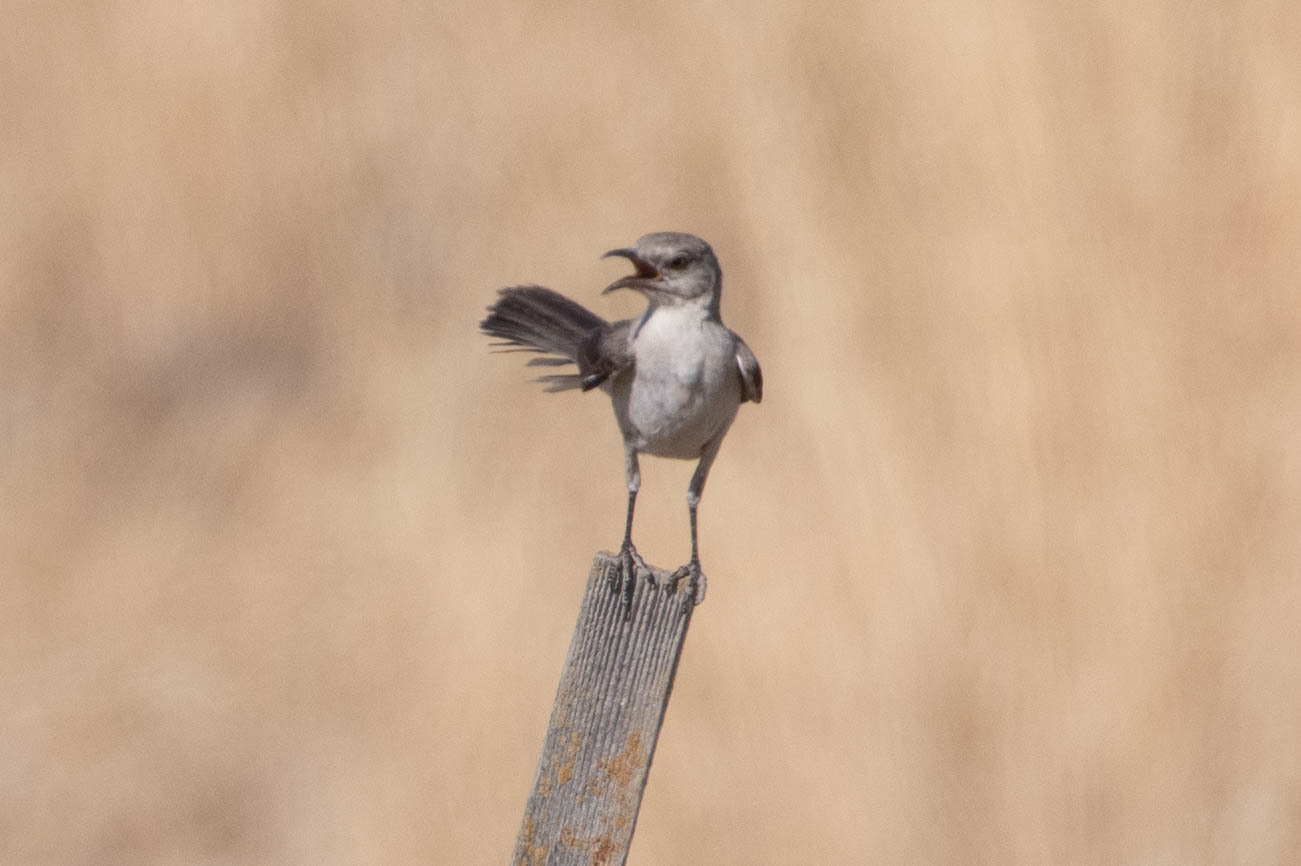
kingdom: Animalia
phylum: Chordata
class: Aves
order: Passeriformes
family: Mimidae
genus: Mimus
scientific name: Mimus polyglottos
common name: Northern mockingbird
